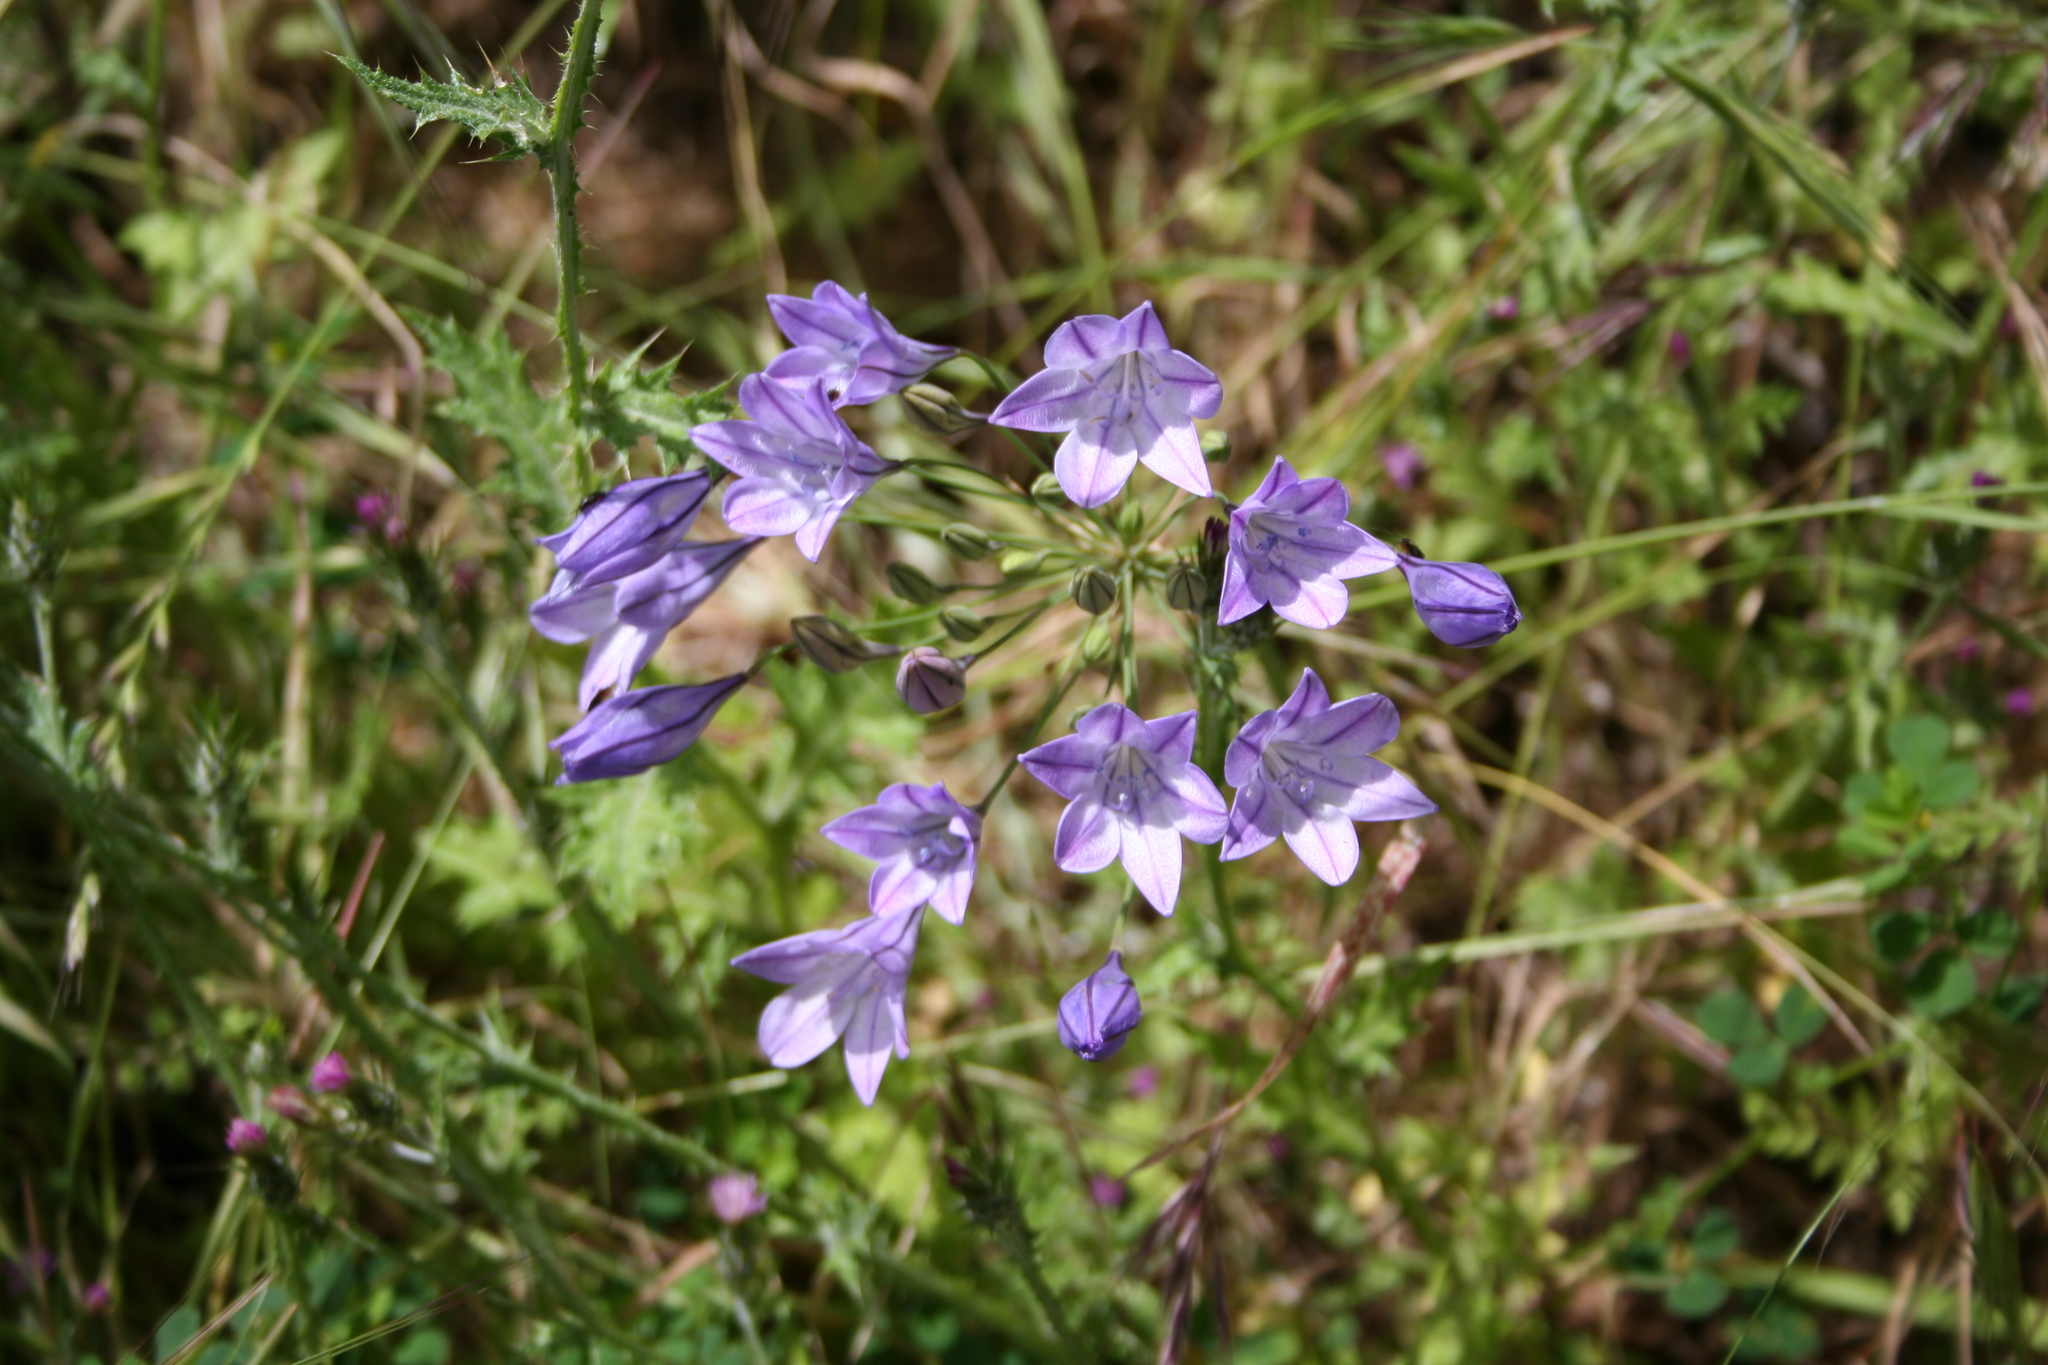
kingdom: Plantae
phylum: Tracheophyta
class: Liliopsida
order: Asparagales
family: Asparagaceae
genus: Triteleia
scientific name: Triteleia laxa
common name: Triplet-lily
